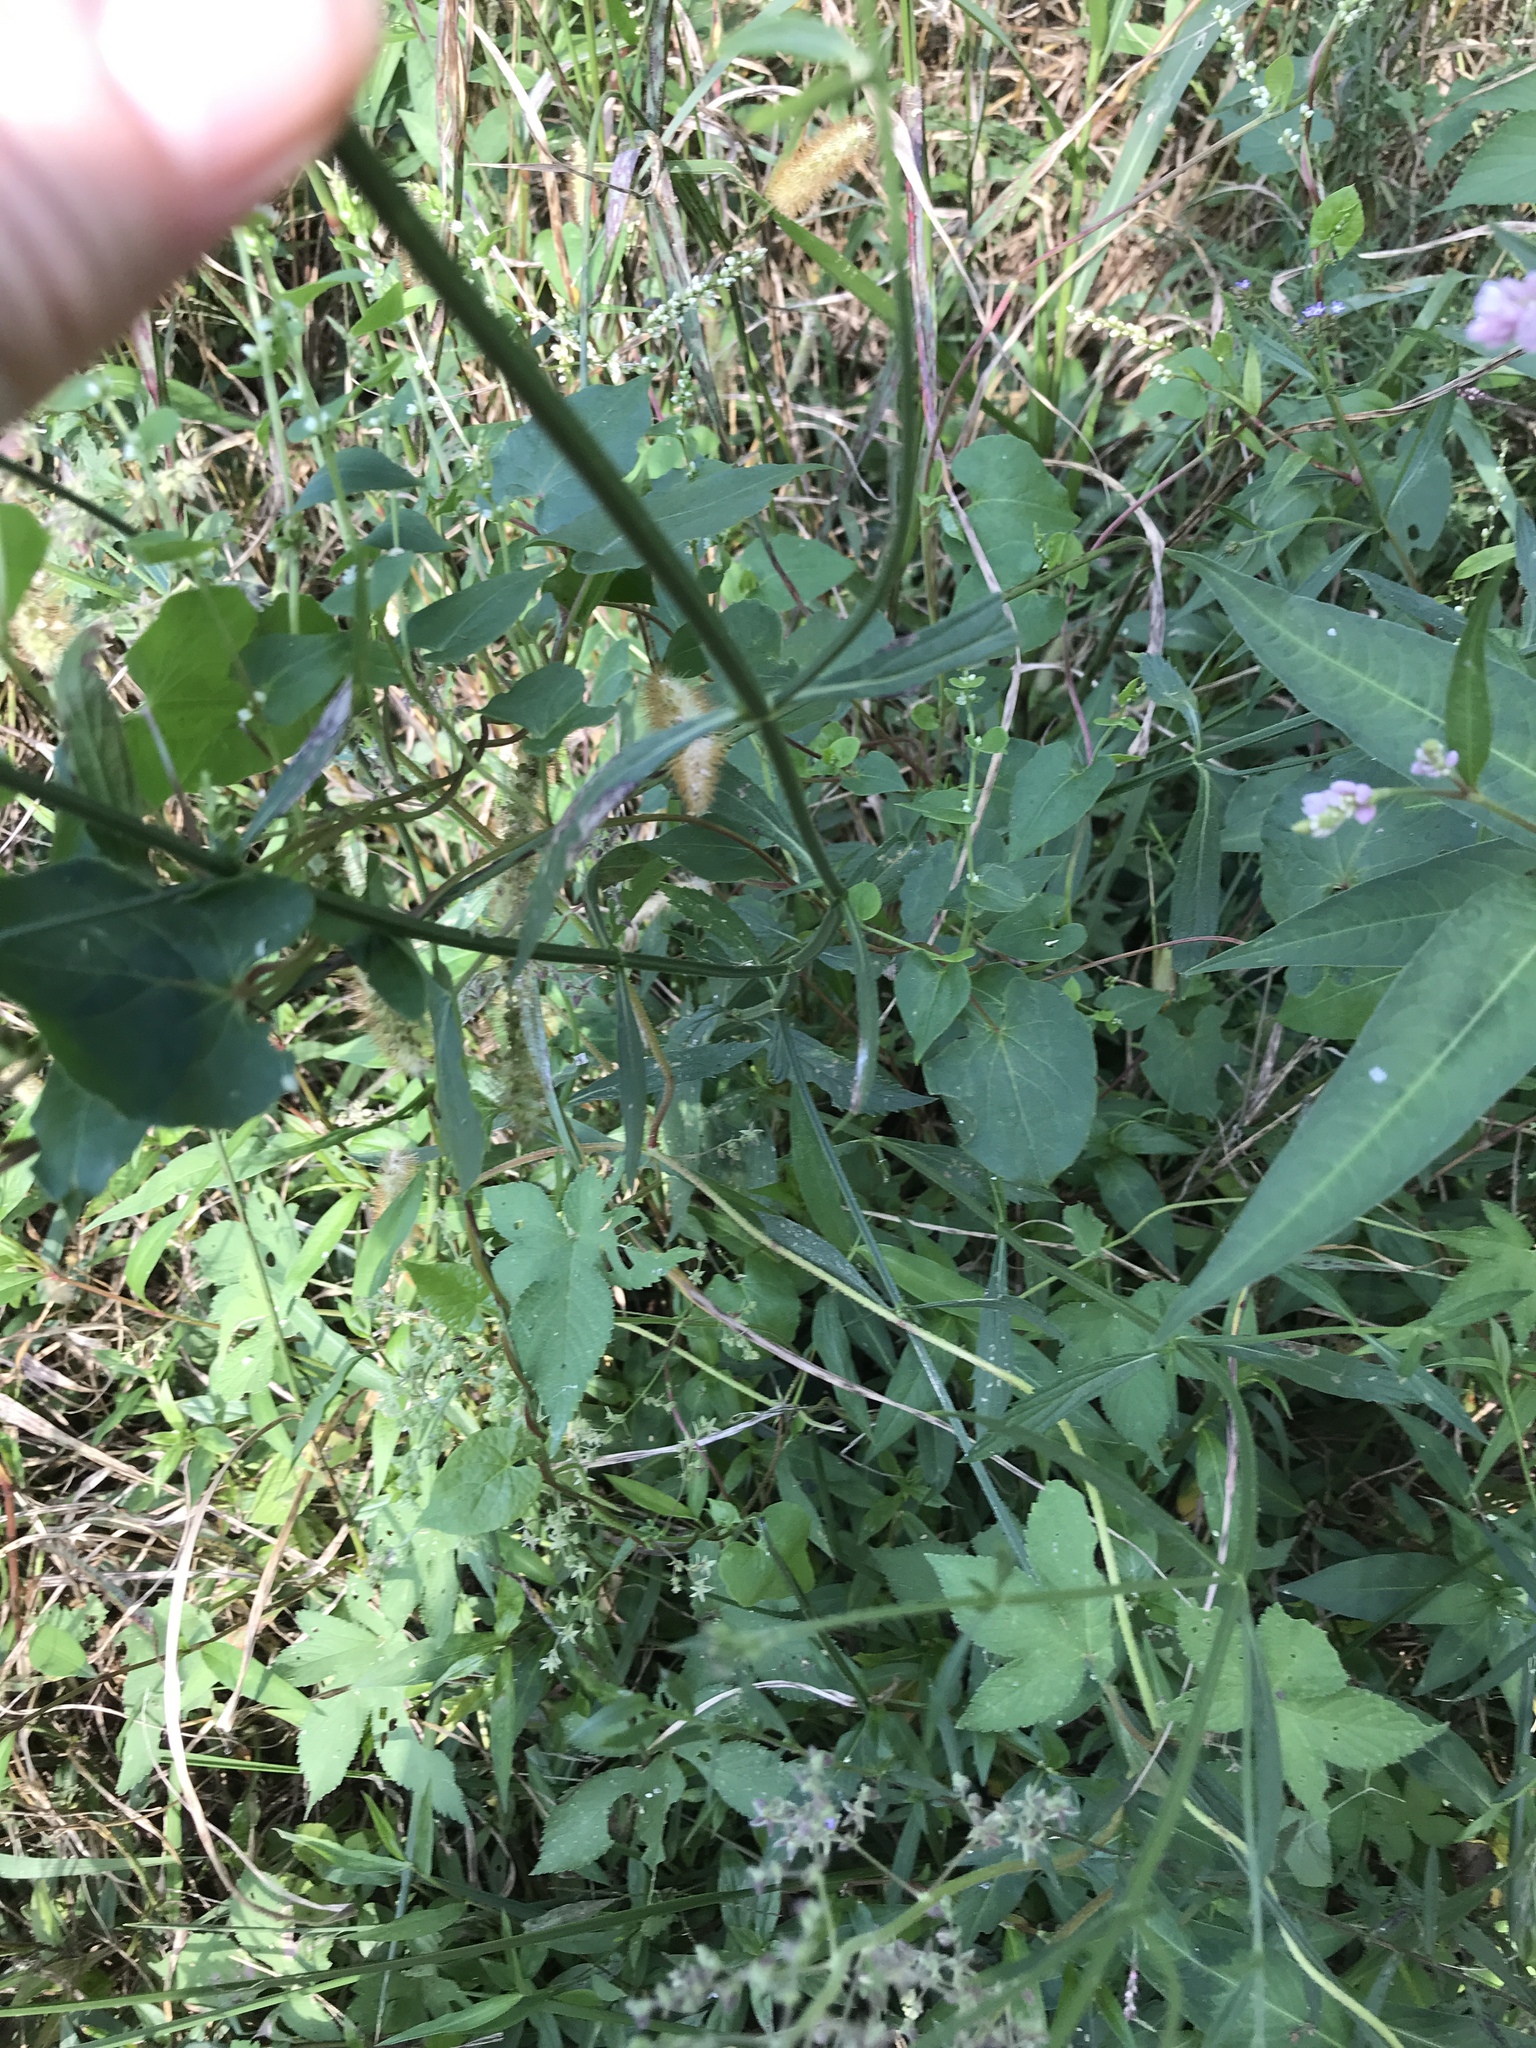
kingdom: Plantae
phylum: Tracheophyta
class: Magnoliopsida
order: Lamiales
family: Verbenaceae
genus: Verbena
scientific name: Verbena brasiliensis
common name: Brazilian vervain
